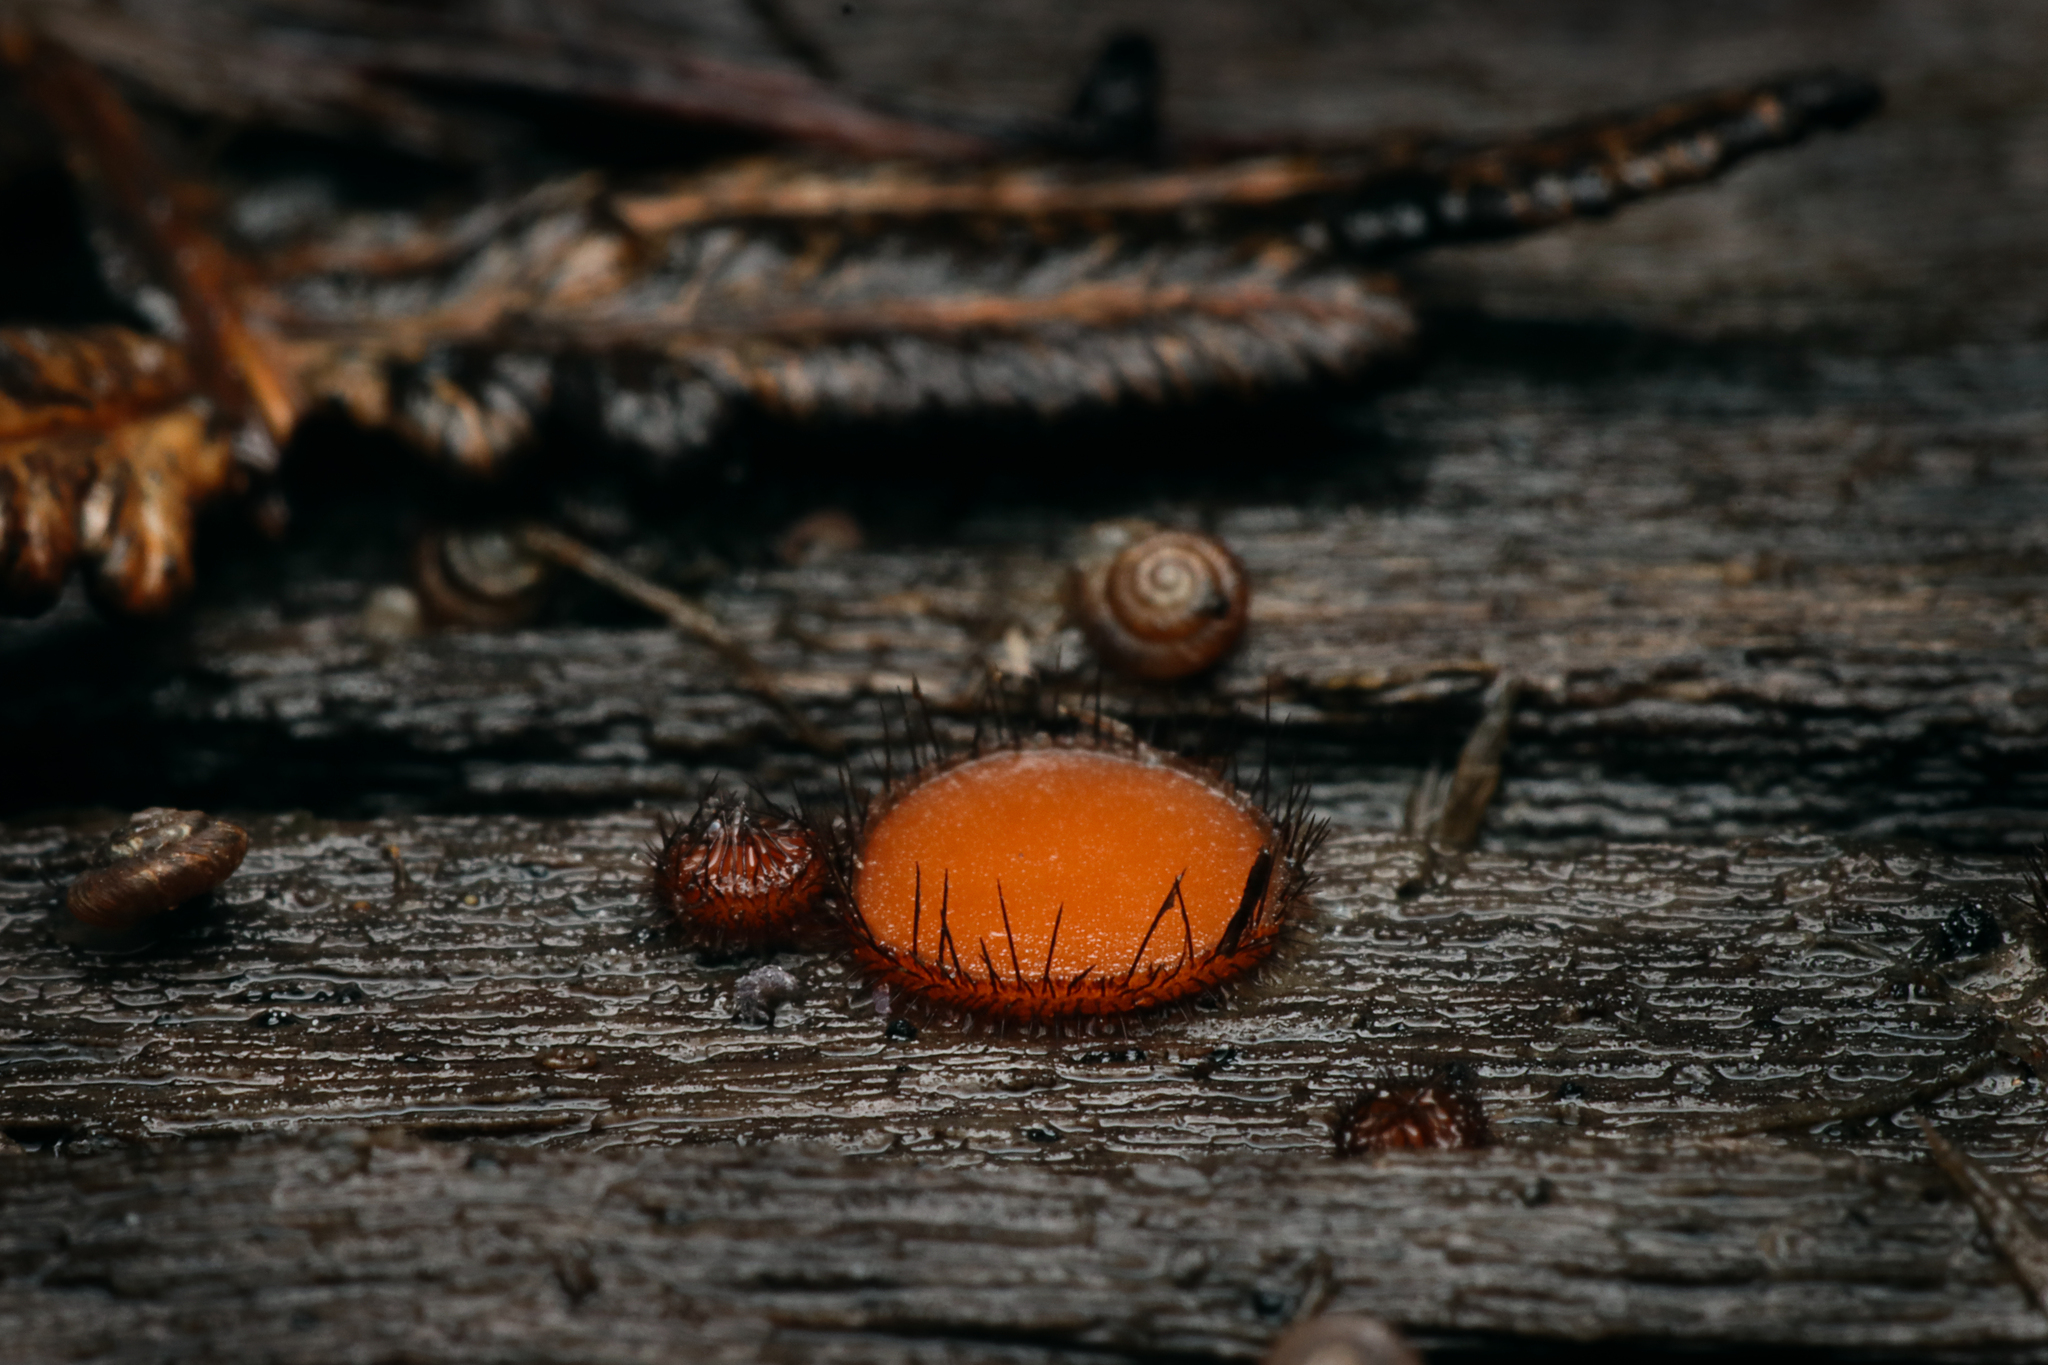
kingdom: Fungi
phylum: Ascomycota
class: Pezizomycetes
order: Pezizales
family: Pyronemataceae
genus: Scutellinia
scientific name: Scutellinia scutellata
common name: Common eyelash
